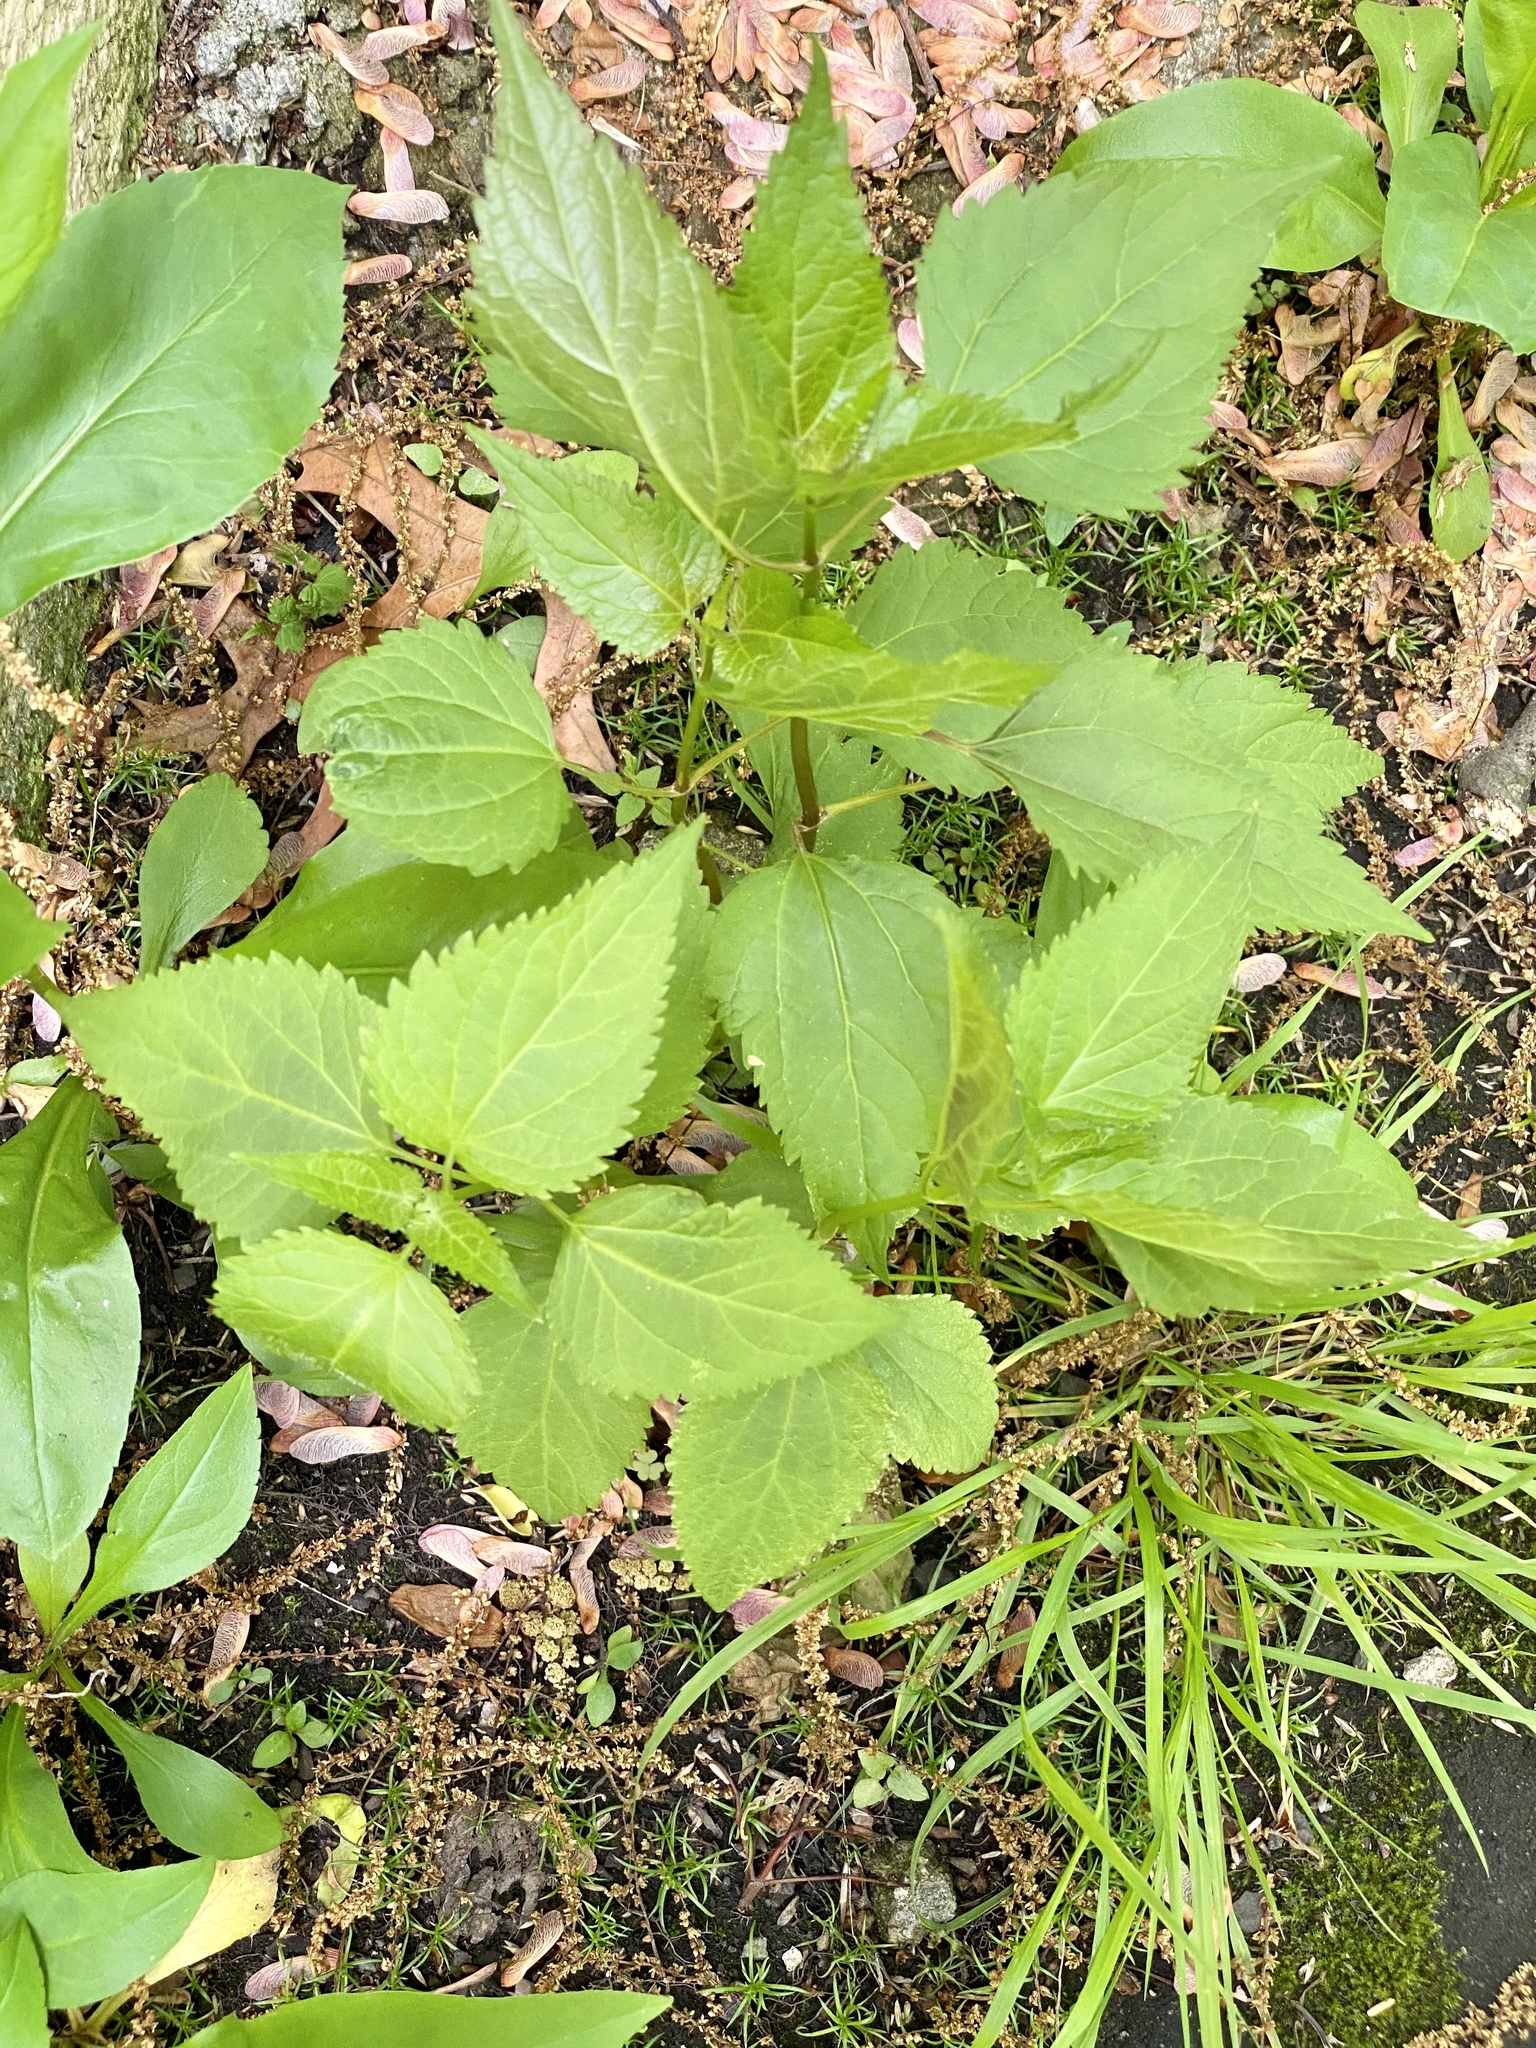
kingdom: Plantae
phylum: Tracheophyta
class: Magnoliopsida
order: Asterales
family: Asteraceae
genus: Ageratina
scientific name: Ageratina altissima
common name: White snakeroot
